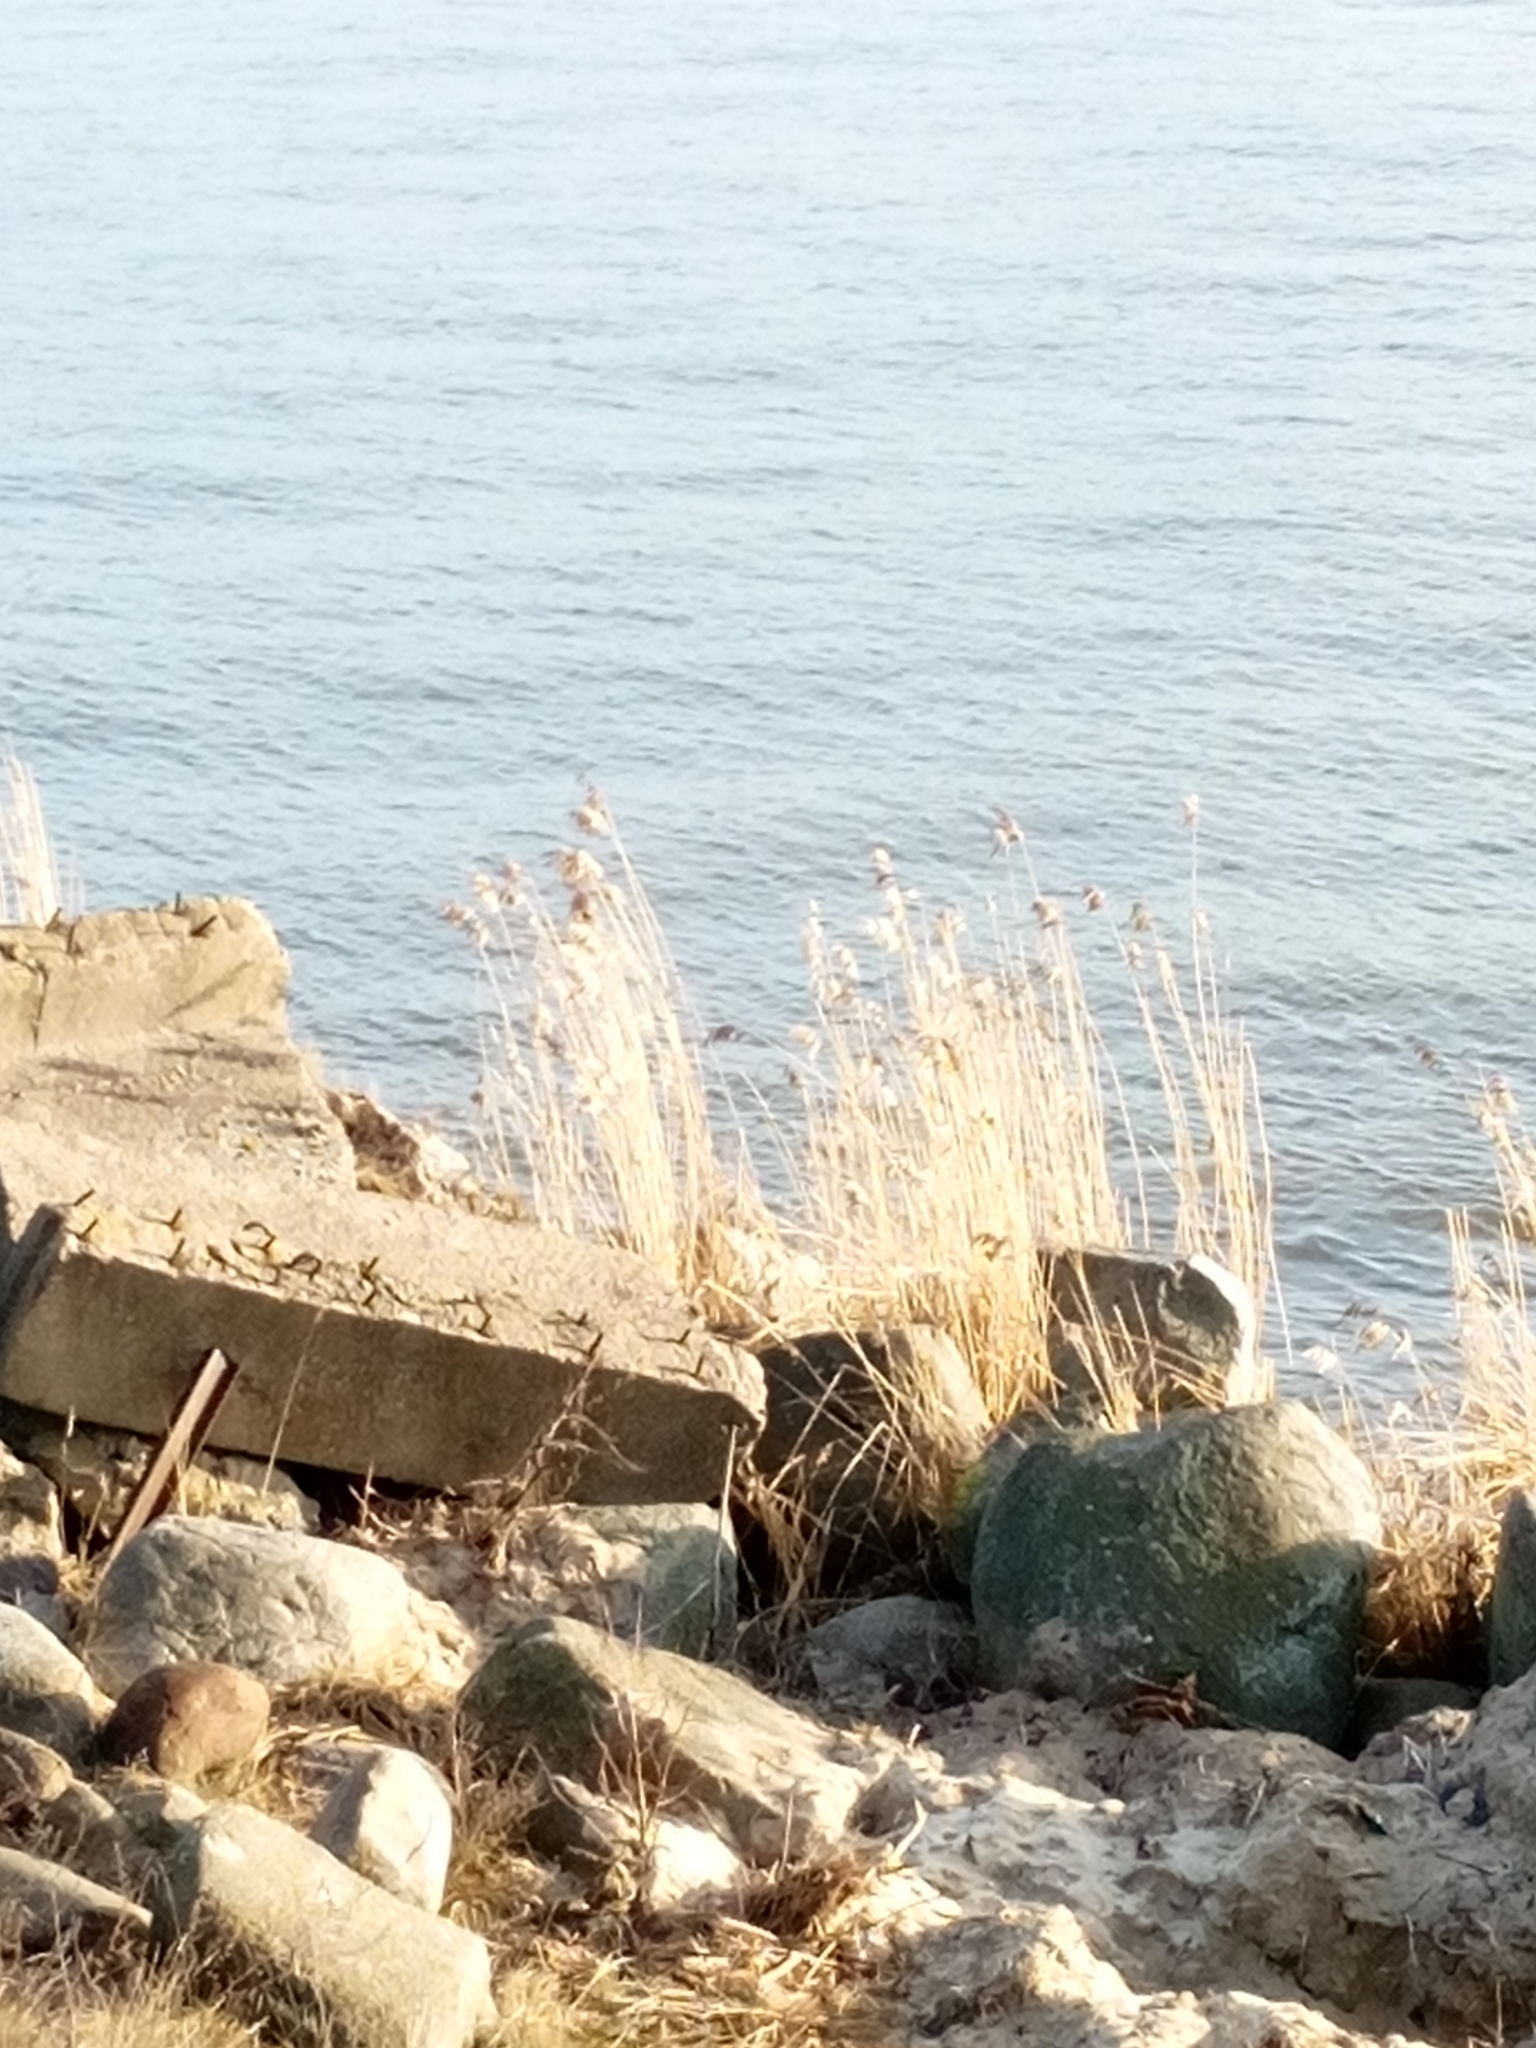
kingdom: Plantae
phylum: Tracheophyta
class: Liliopsida
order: Poales
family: Poaceae
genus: Phragmites
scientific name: Phragmites australis
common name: Common reed
